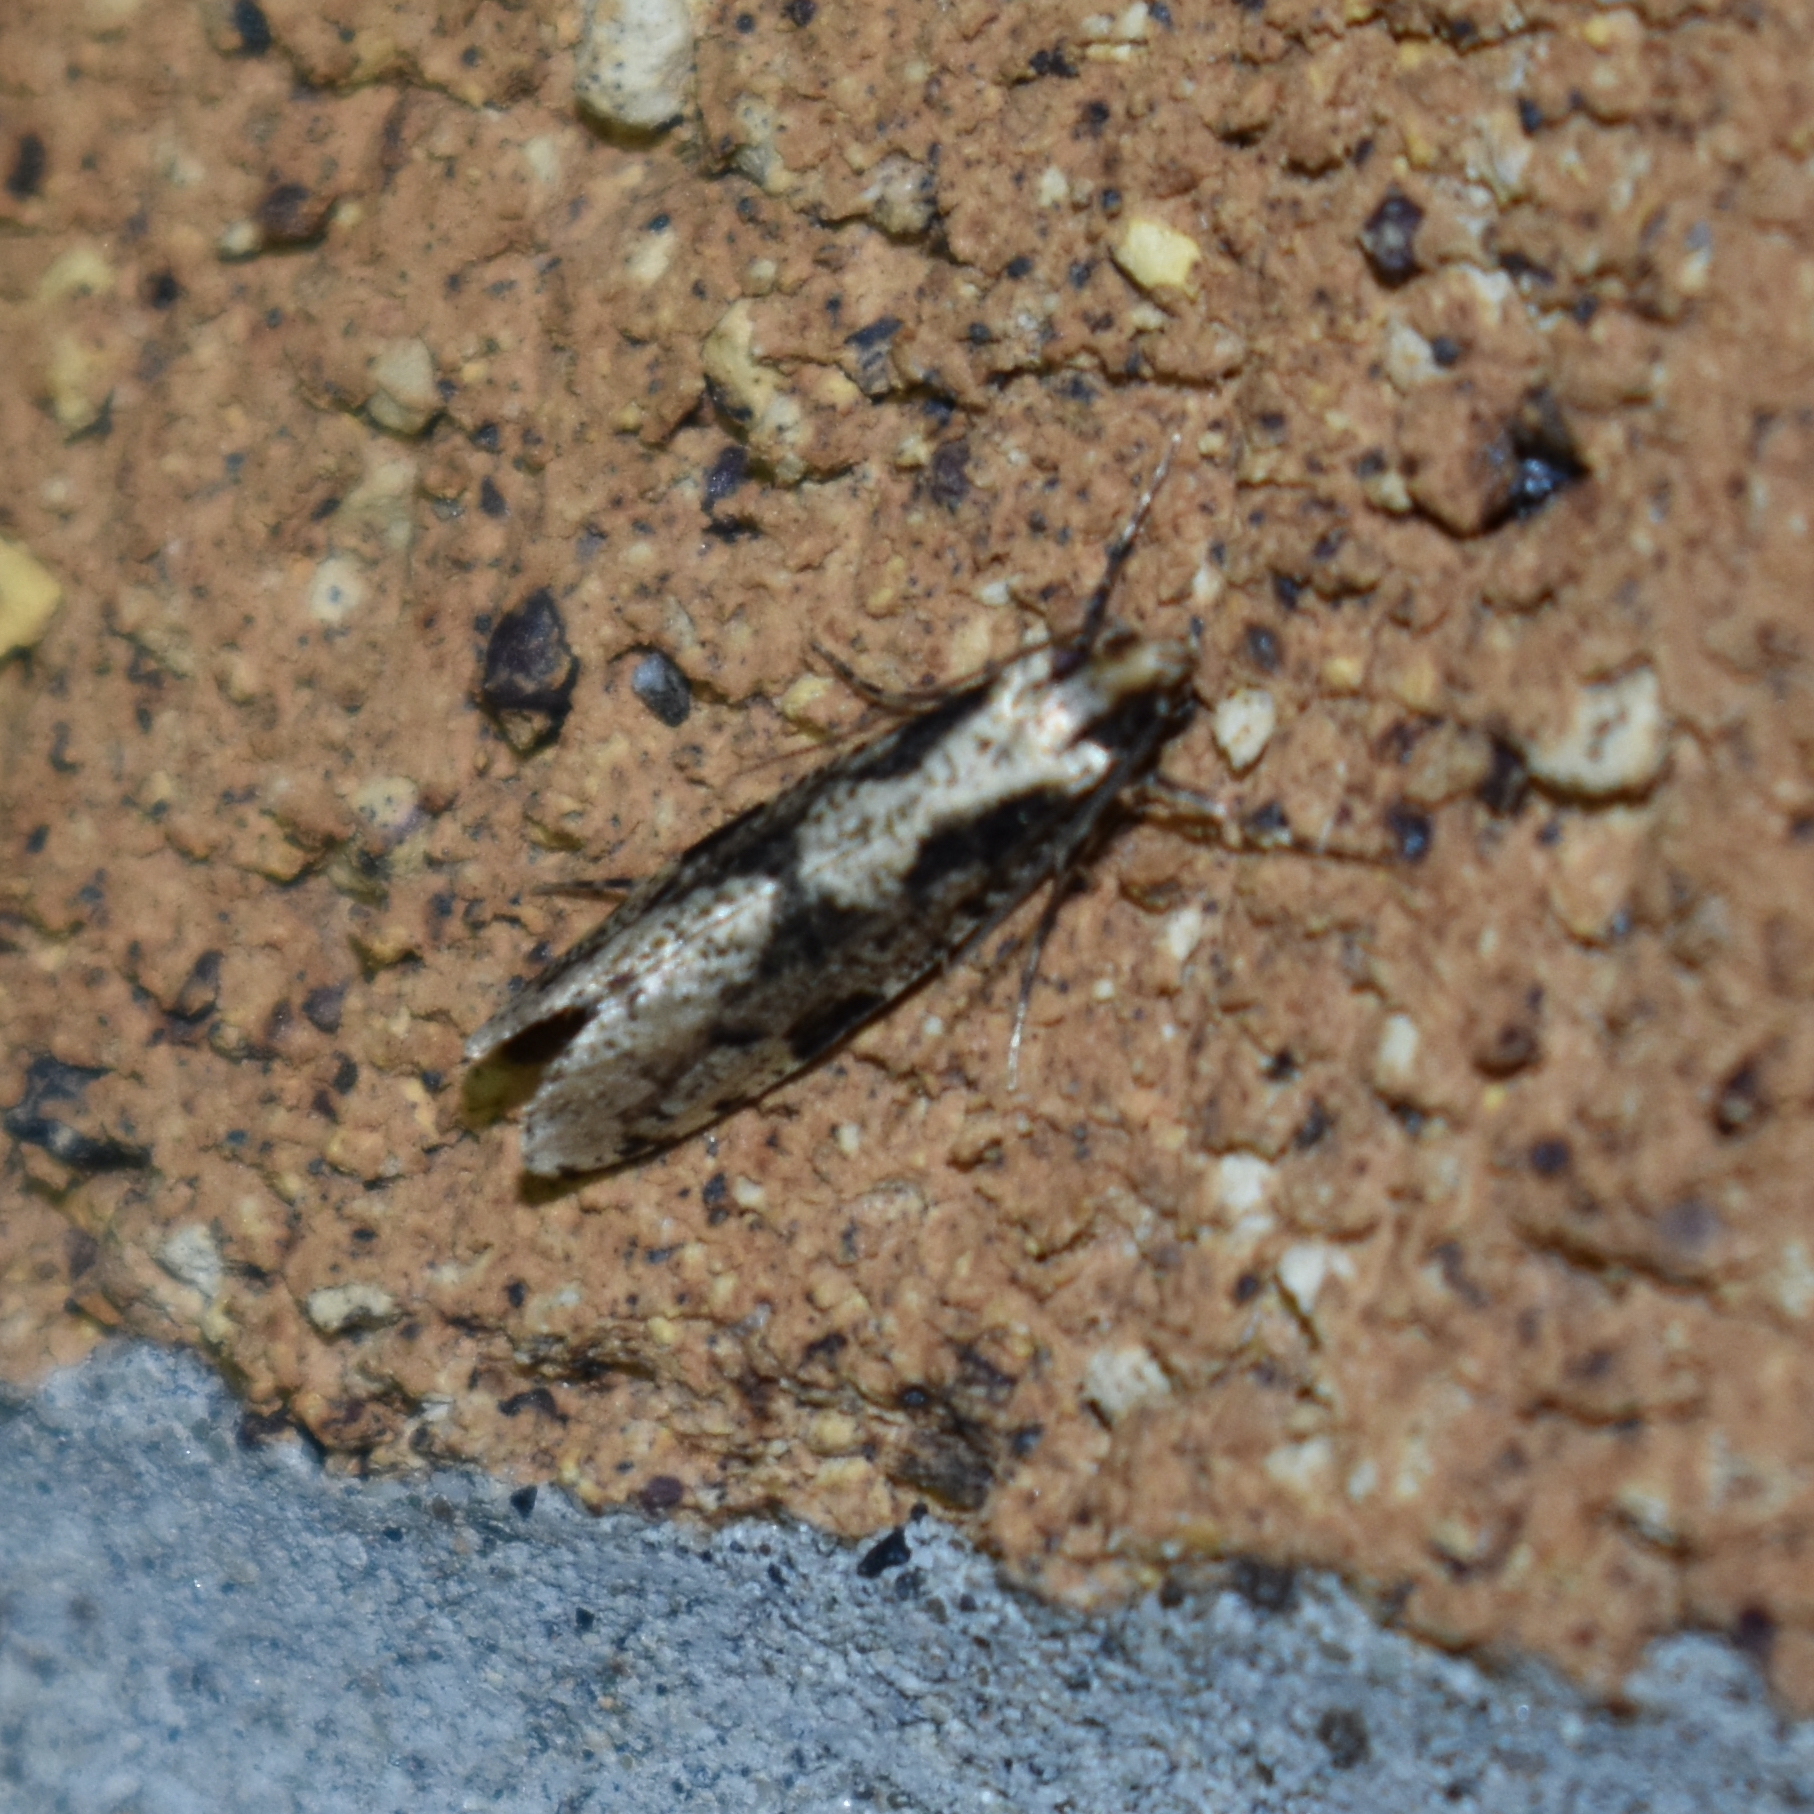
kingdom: Animalia
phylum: Arthropoda
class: Insecta
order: Lepidoptera
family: Tineidae
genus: Morophagoides
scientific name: Morophagoides burkerella
